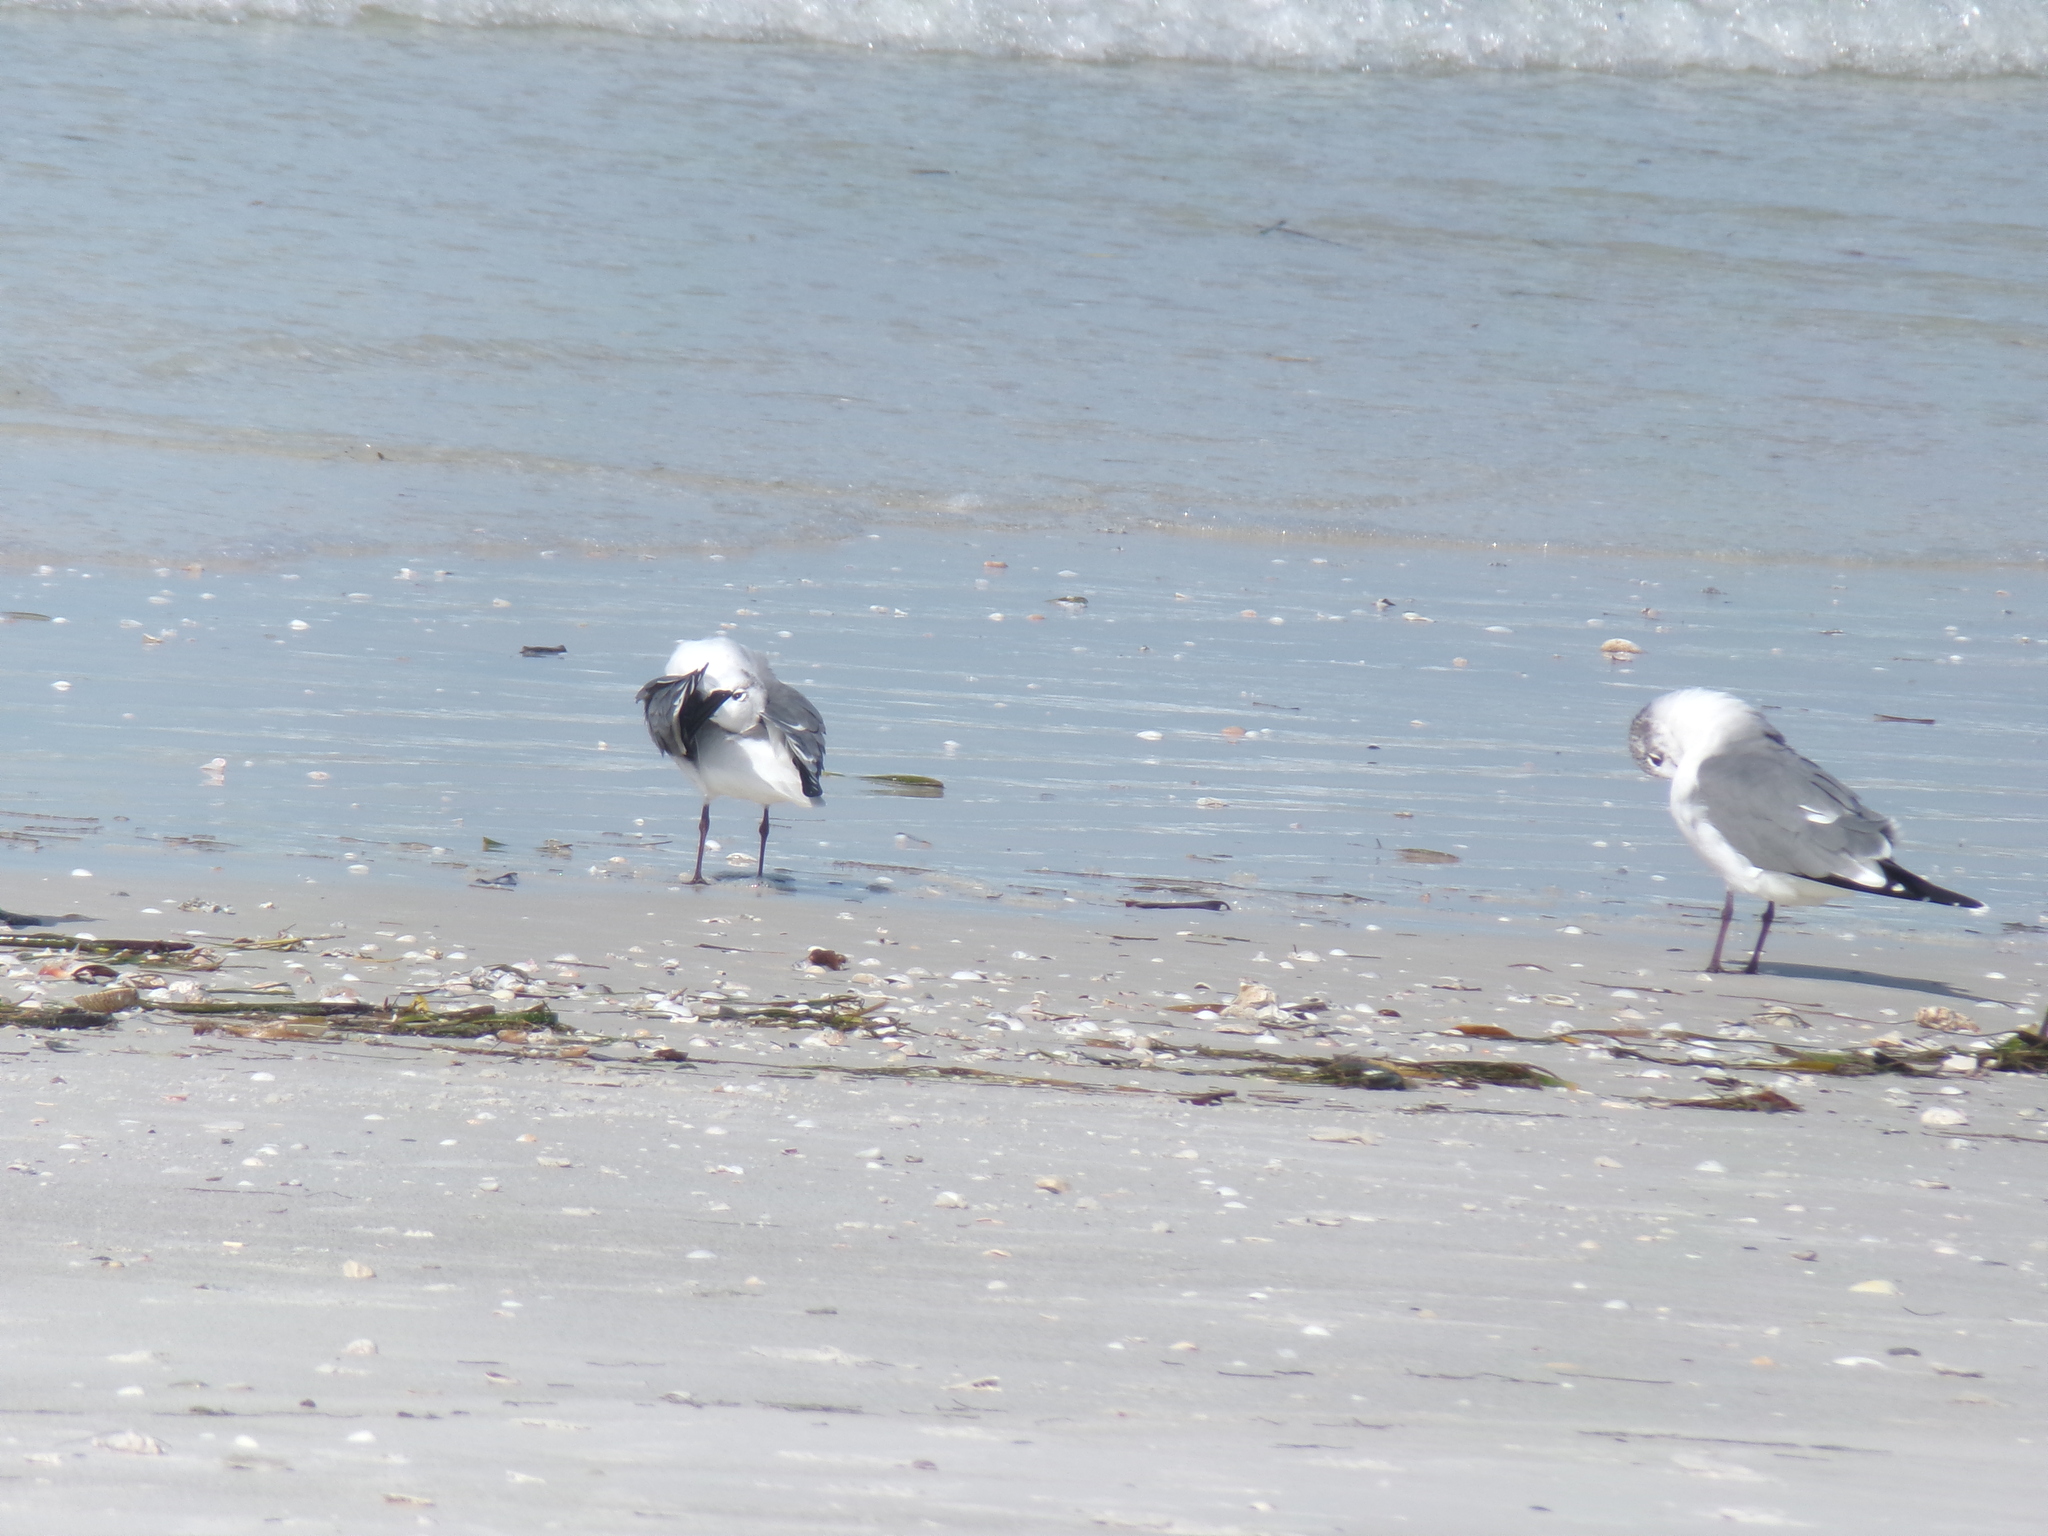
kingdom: Animalia
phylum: Chordata
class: Aves
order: Charadriiformes
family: Laridae
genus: Leucophaeus
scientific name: Leucophaeus atricilla
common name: Laughing gull
